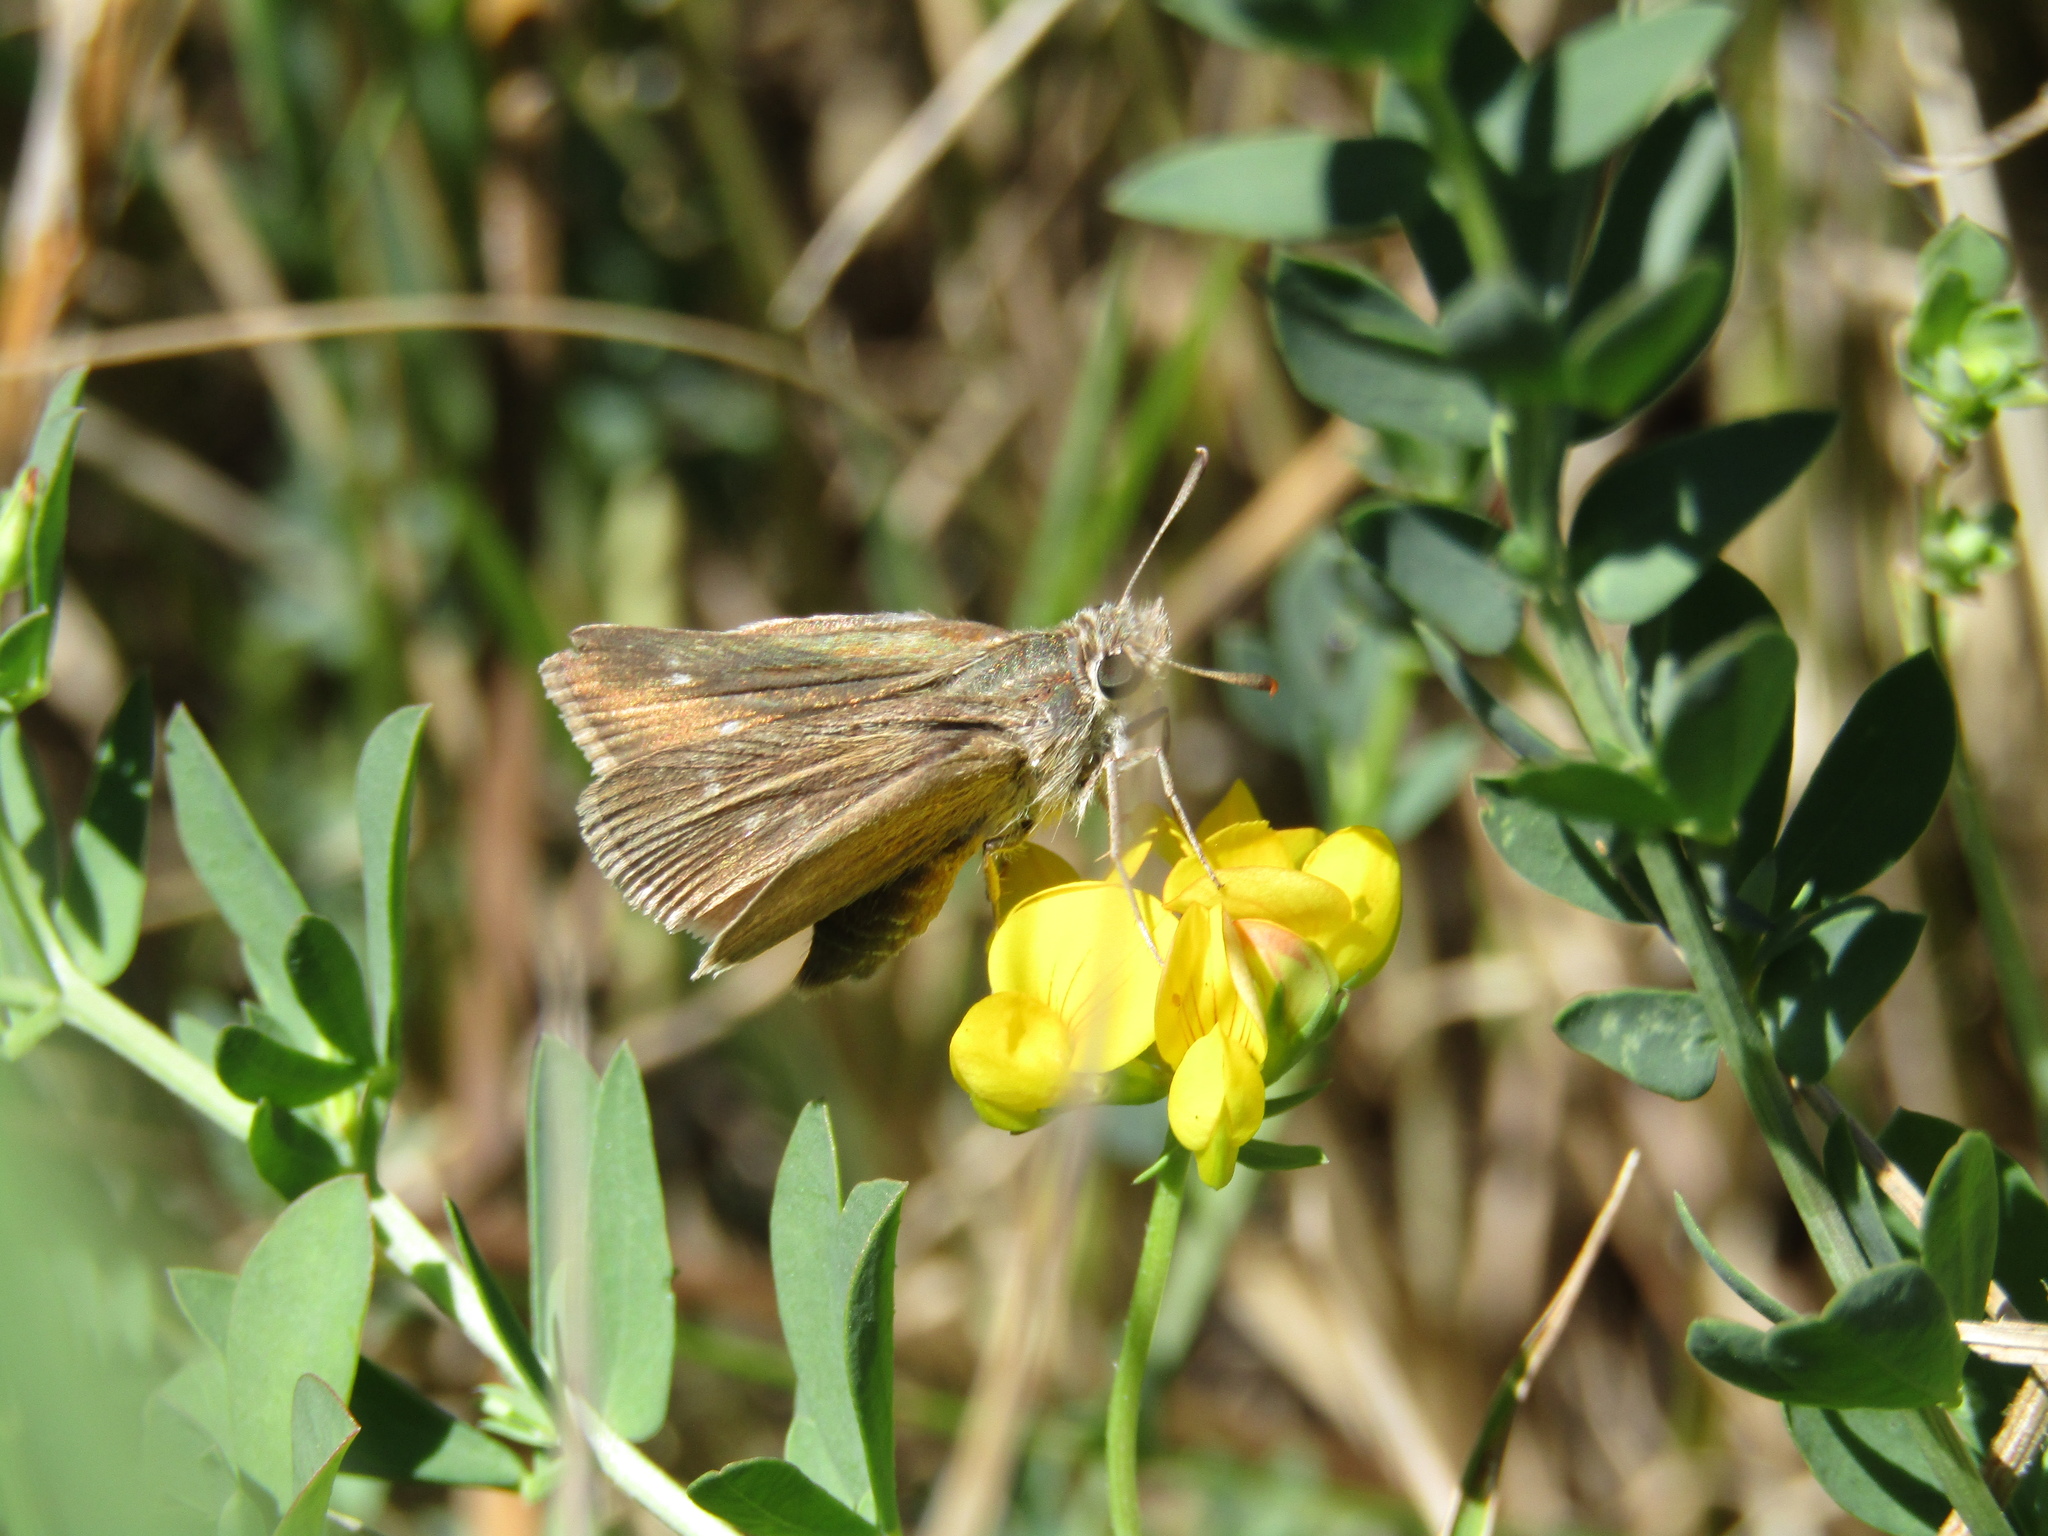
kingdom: Animalia
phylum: Arthropoda
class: Insecta
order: Lepidoptera
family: Hesperiidae
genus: Conga
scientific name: Conga urqua
